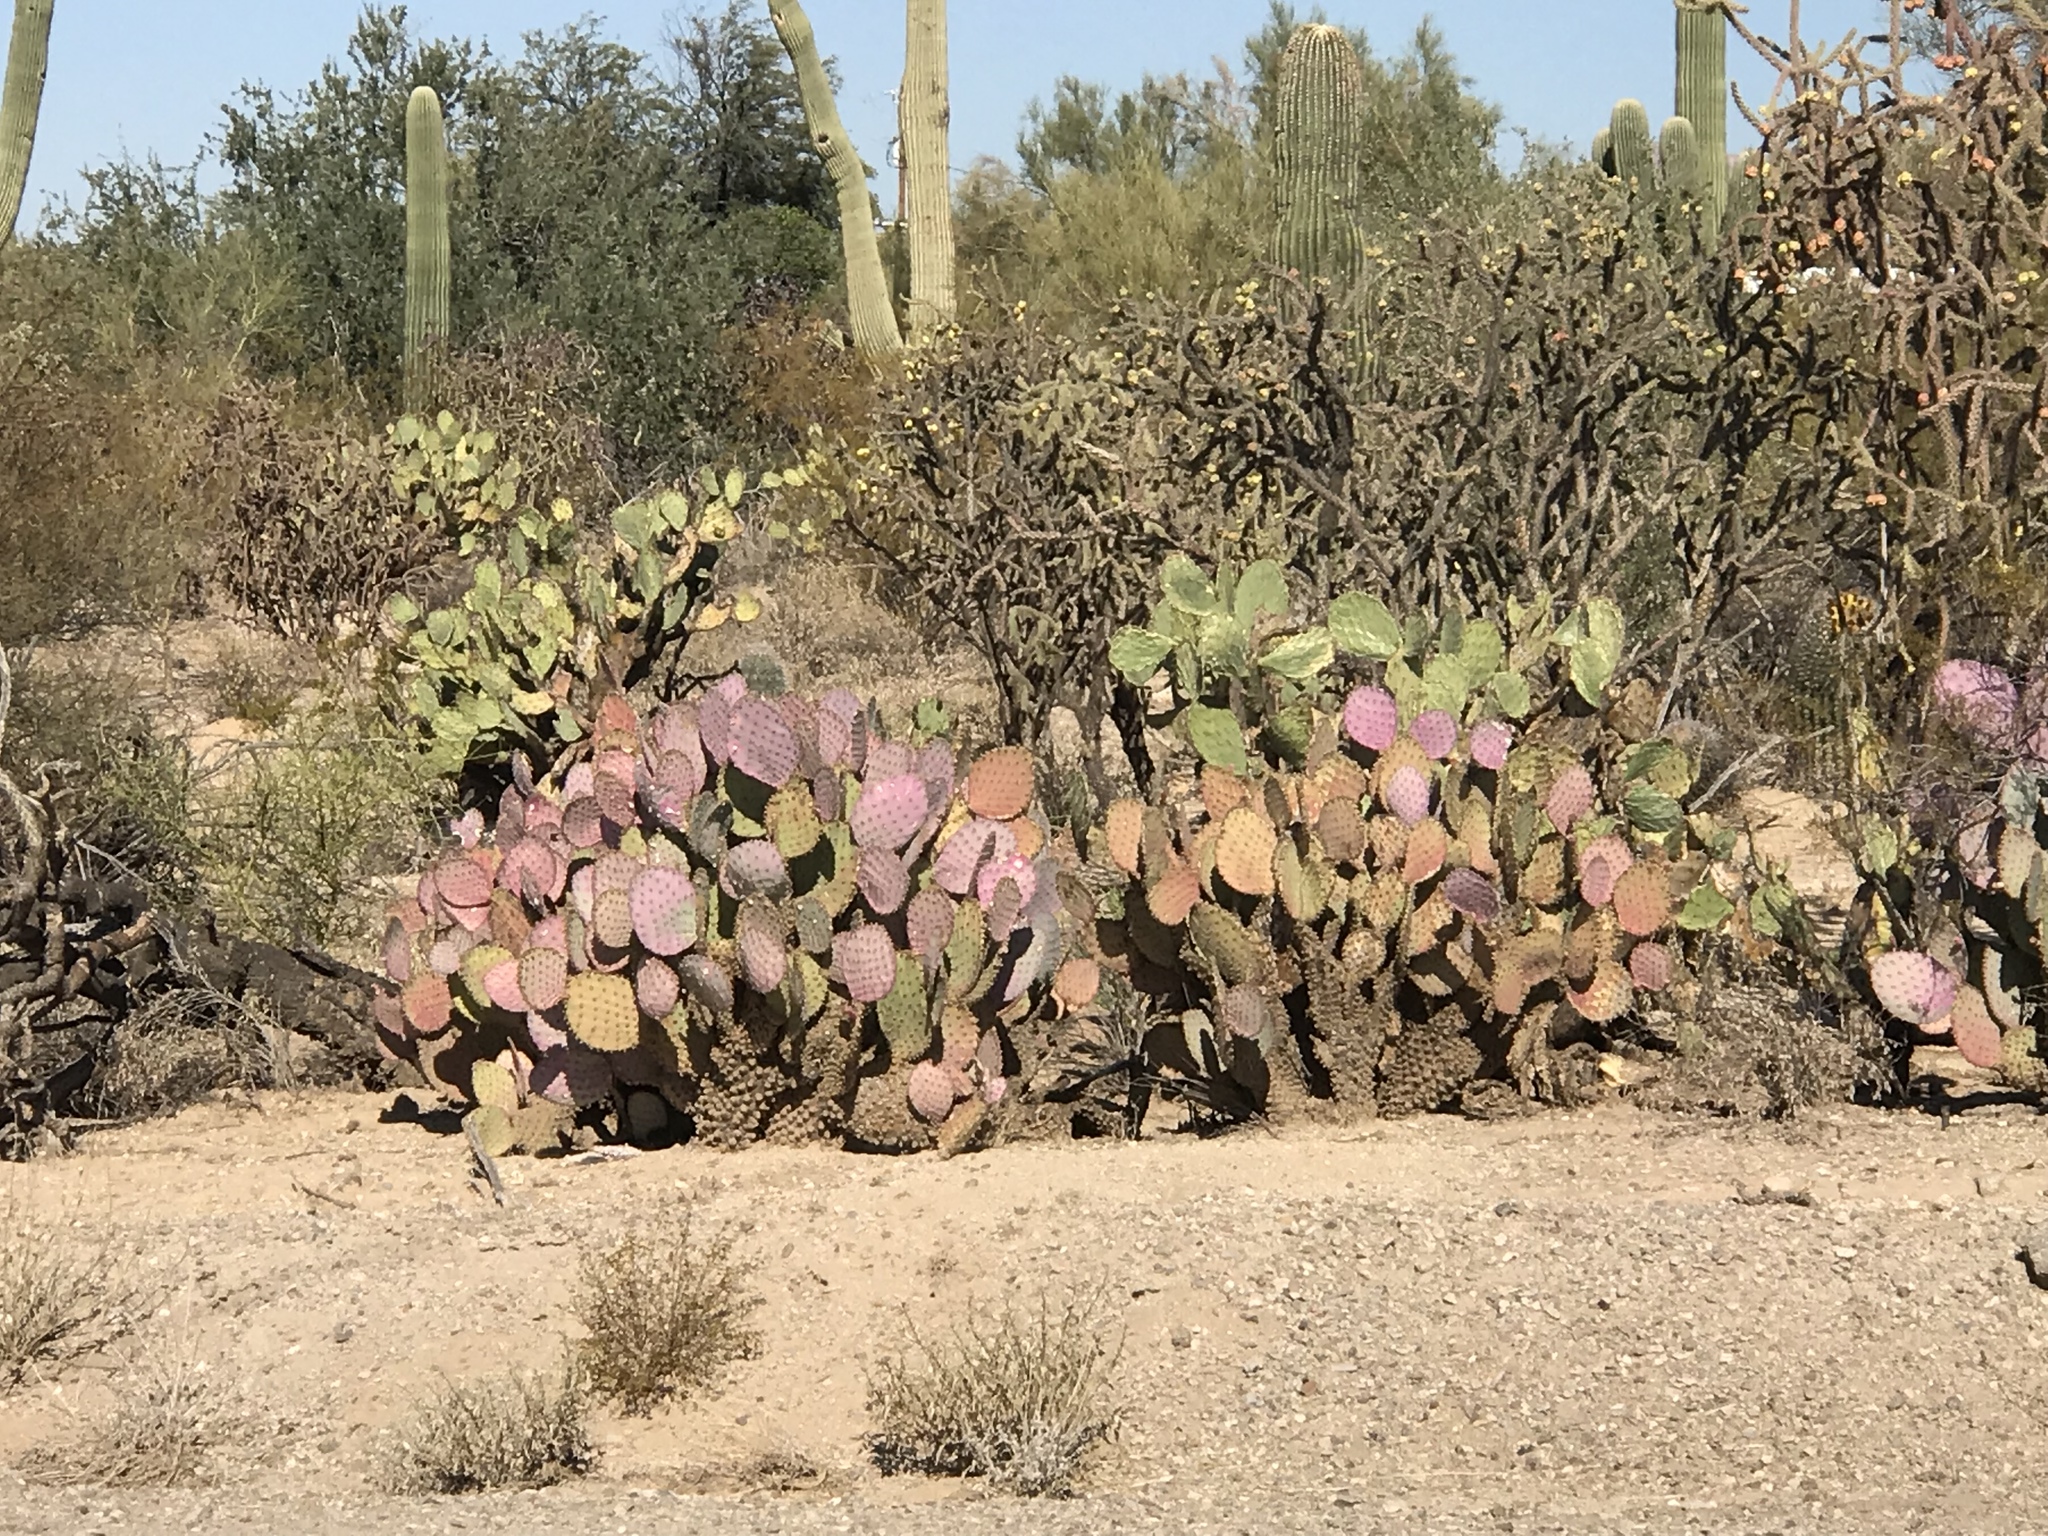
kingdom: Plantae
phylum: Tracheophyta
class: Magnoliopsida
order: Caryophyllales
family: Cactaceae
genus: Opuntia
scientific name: Opuntia gosseliniana
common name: Violet prickly-pear
